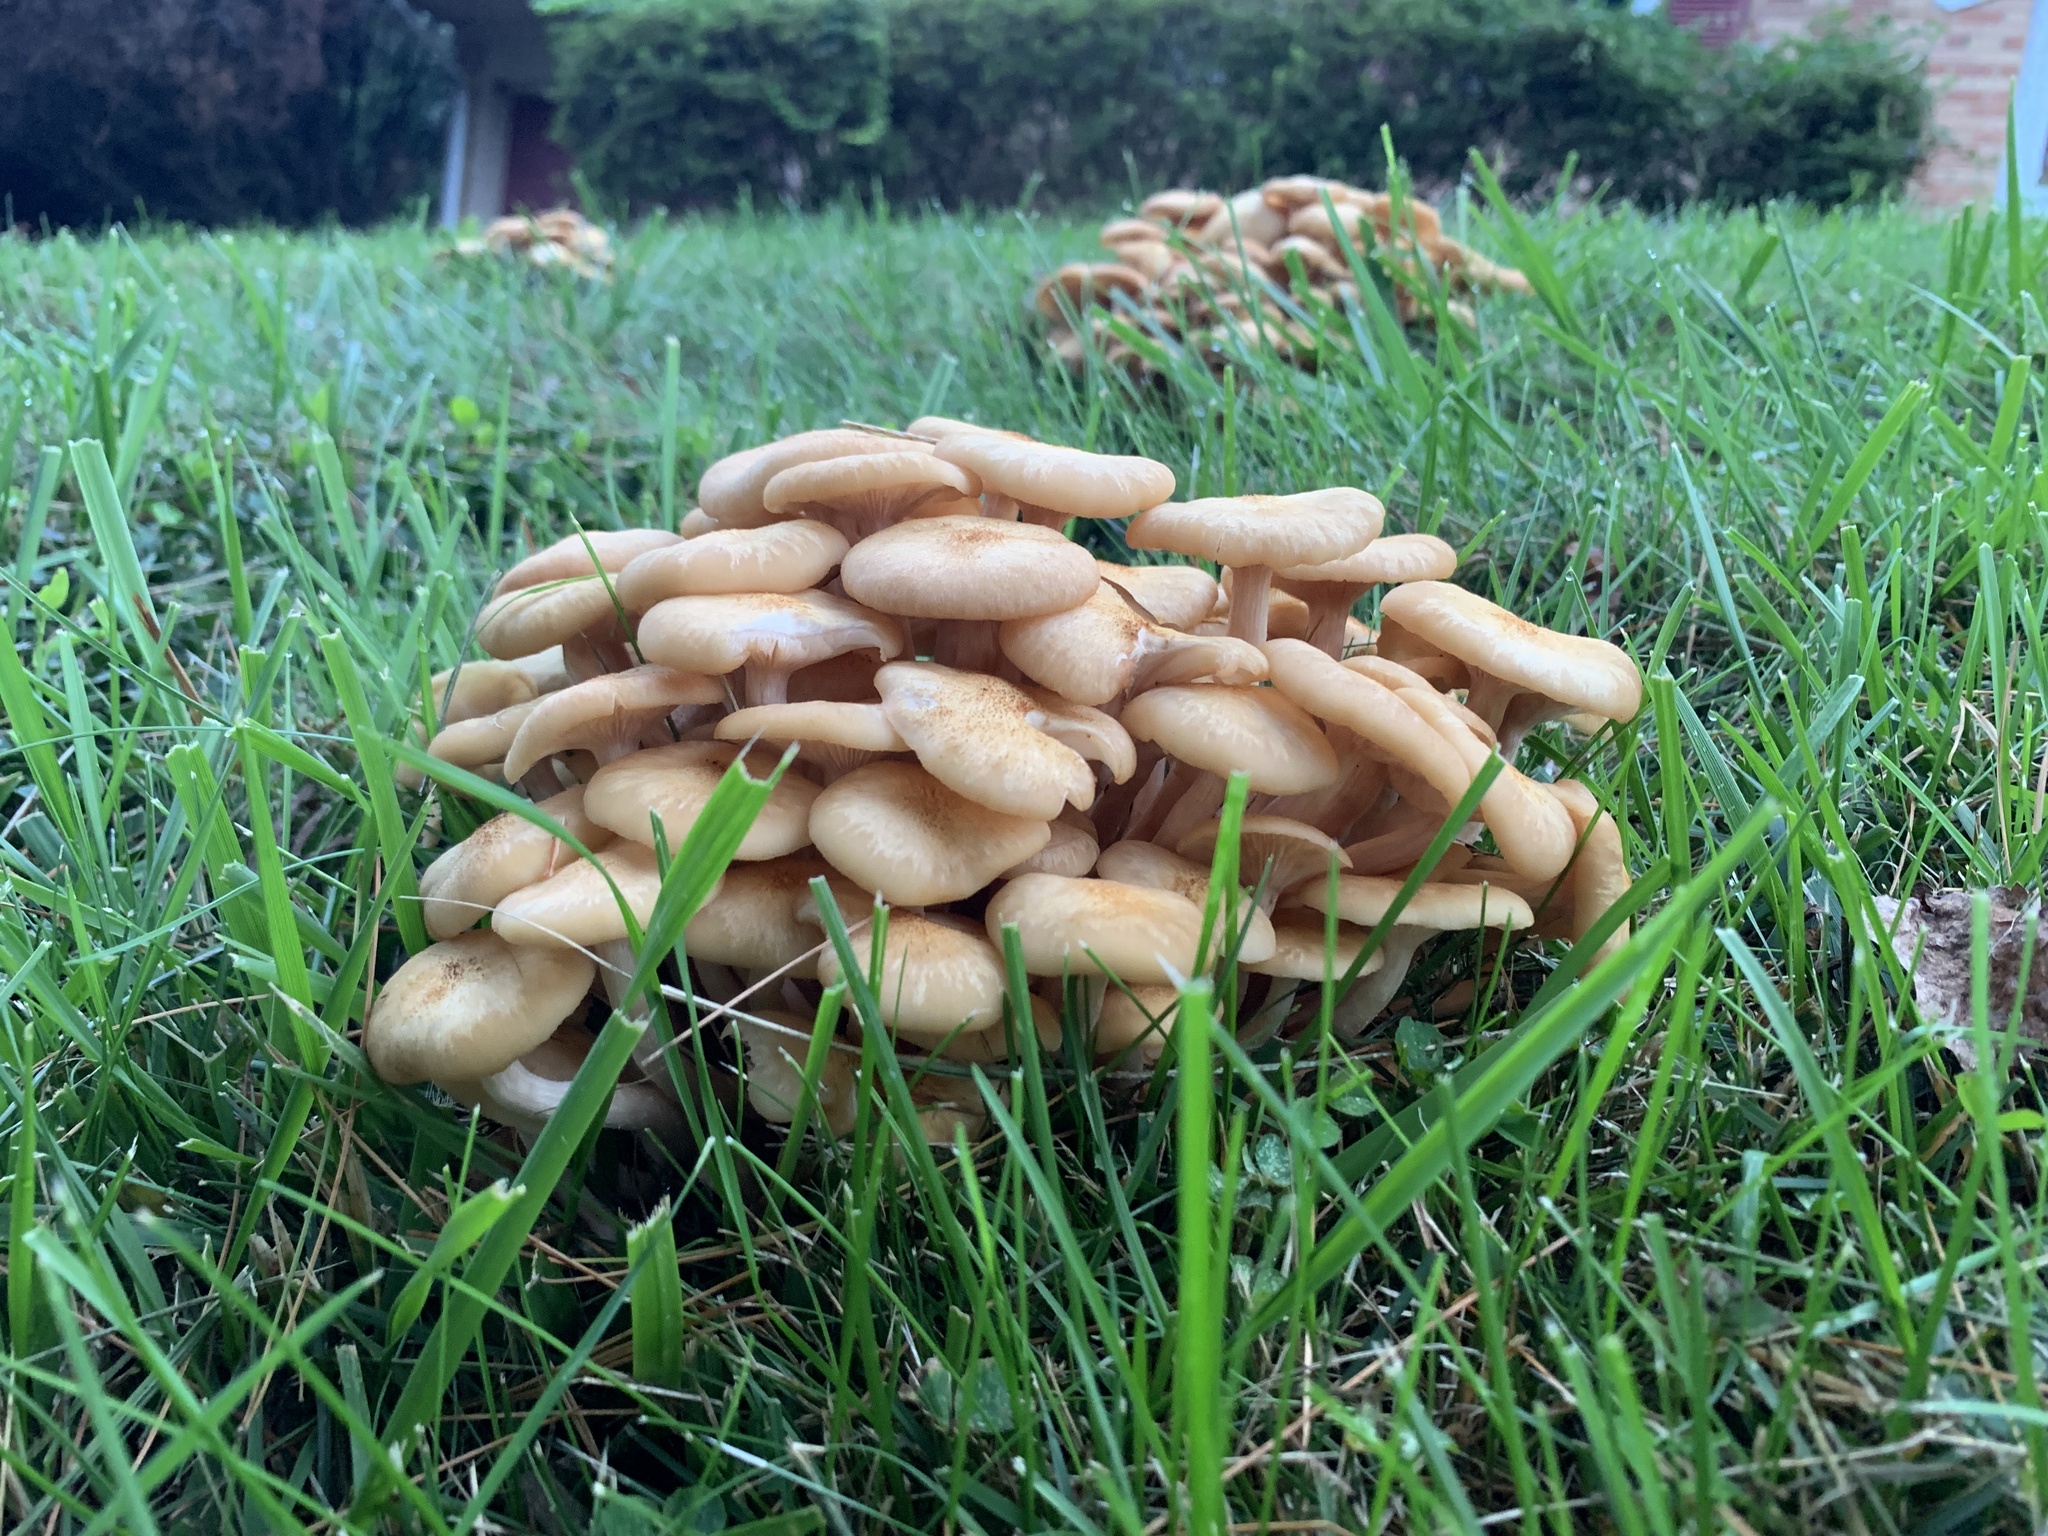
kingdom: Fungi
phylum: Basidiomycota
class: Agaricomycetes
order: Agaricales
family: Physalacriaceae
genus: Desarmillaria
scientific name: Desarmillaria caespitosa
